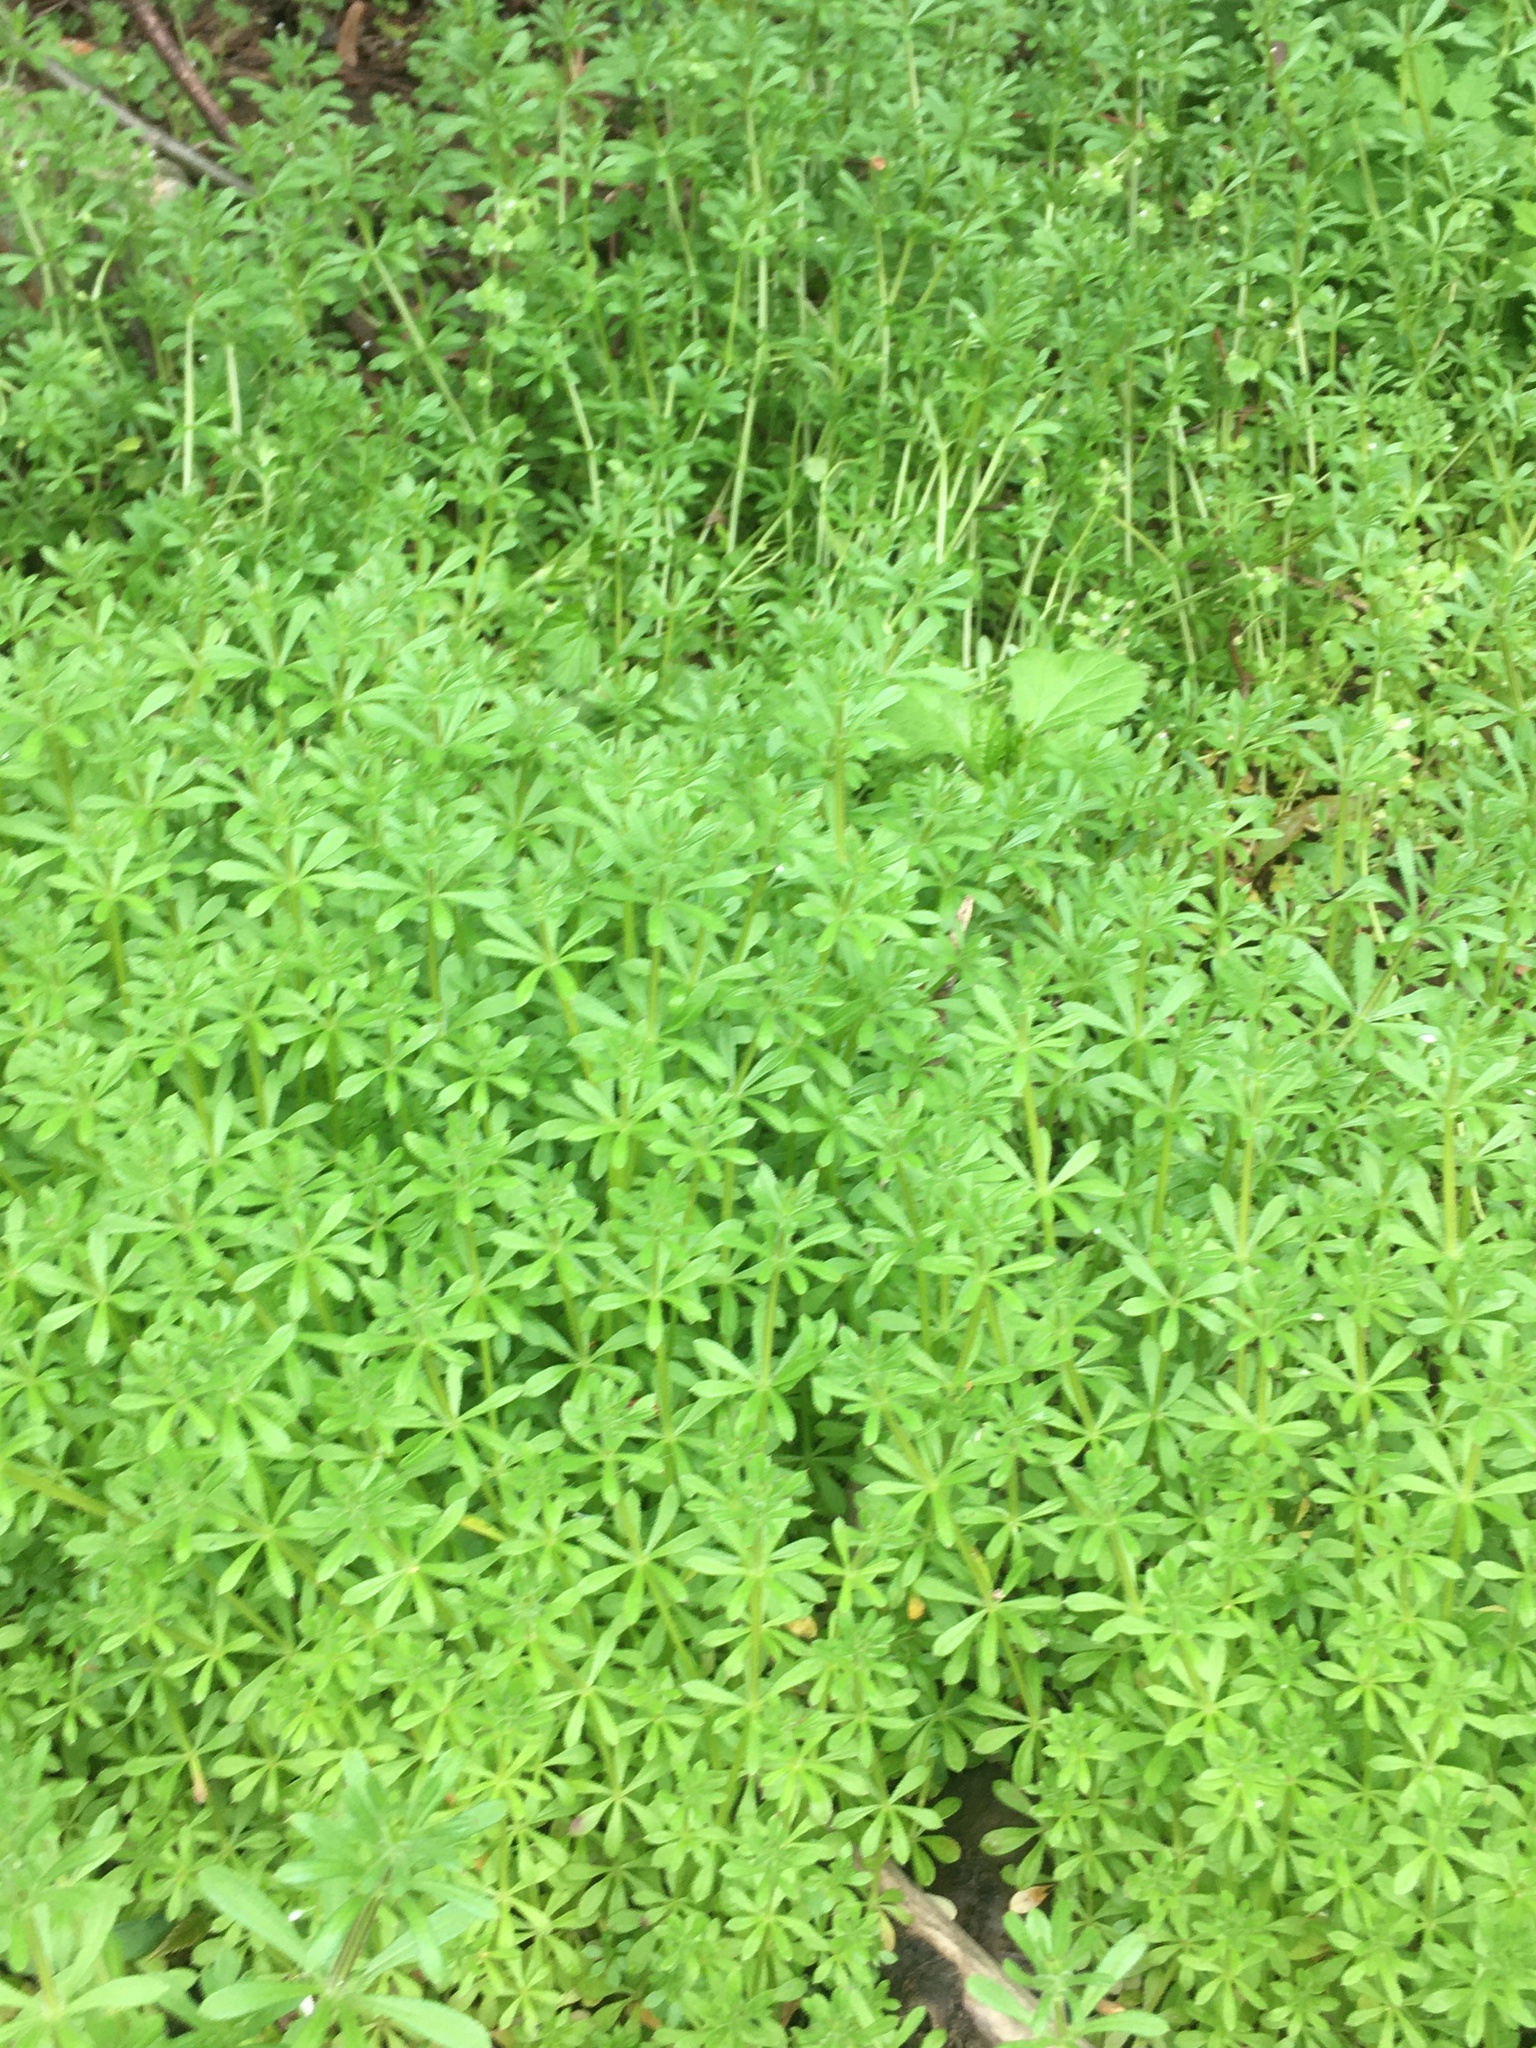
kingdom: Plantae
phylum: Tracheophyta
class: Magnoliopsida
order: Gentianales
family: Rubiaceae
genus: Galium
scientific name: Galium aparine
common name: Cleavers
